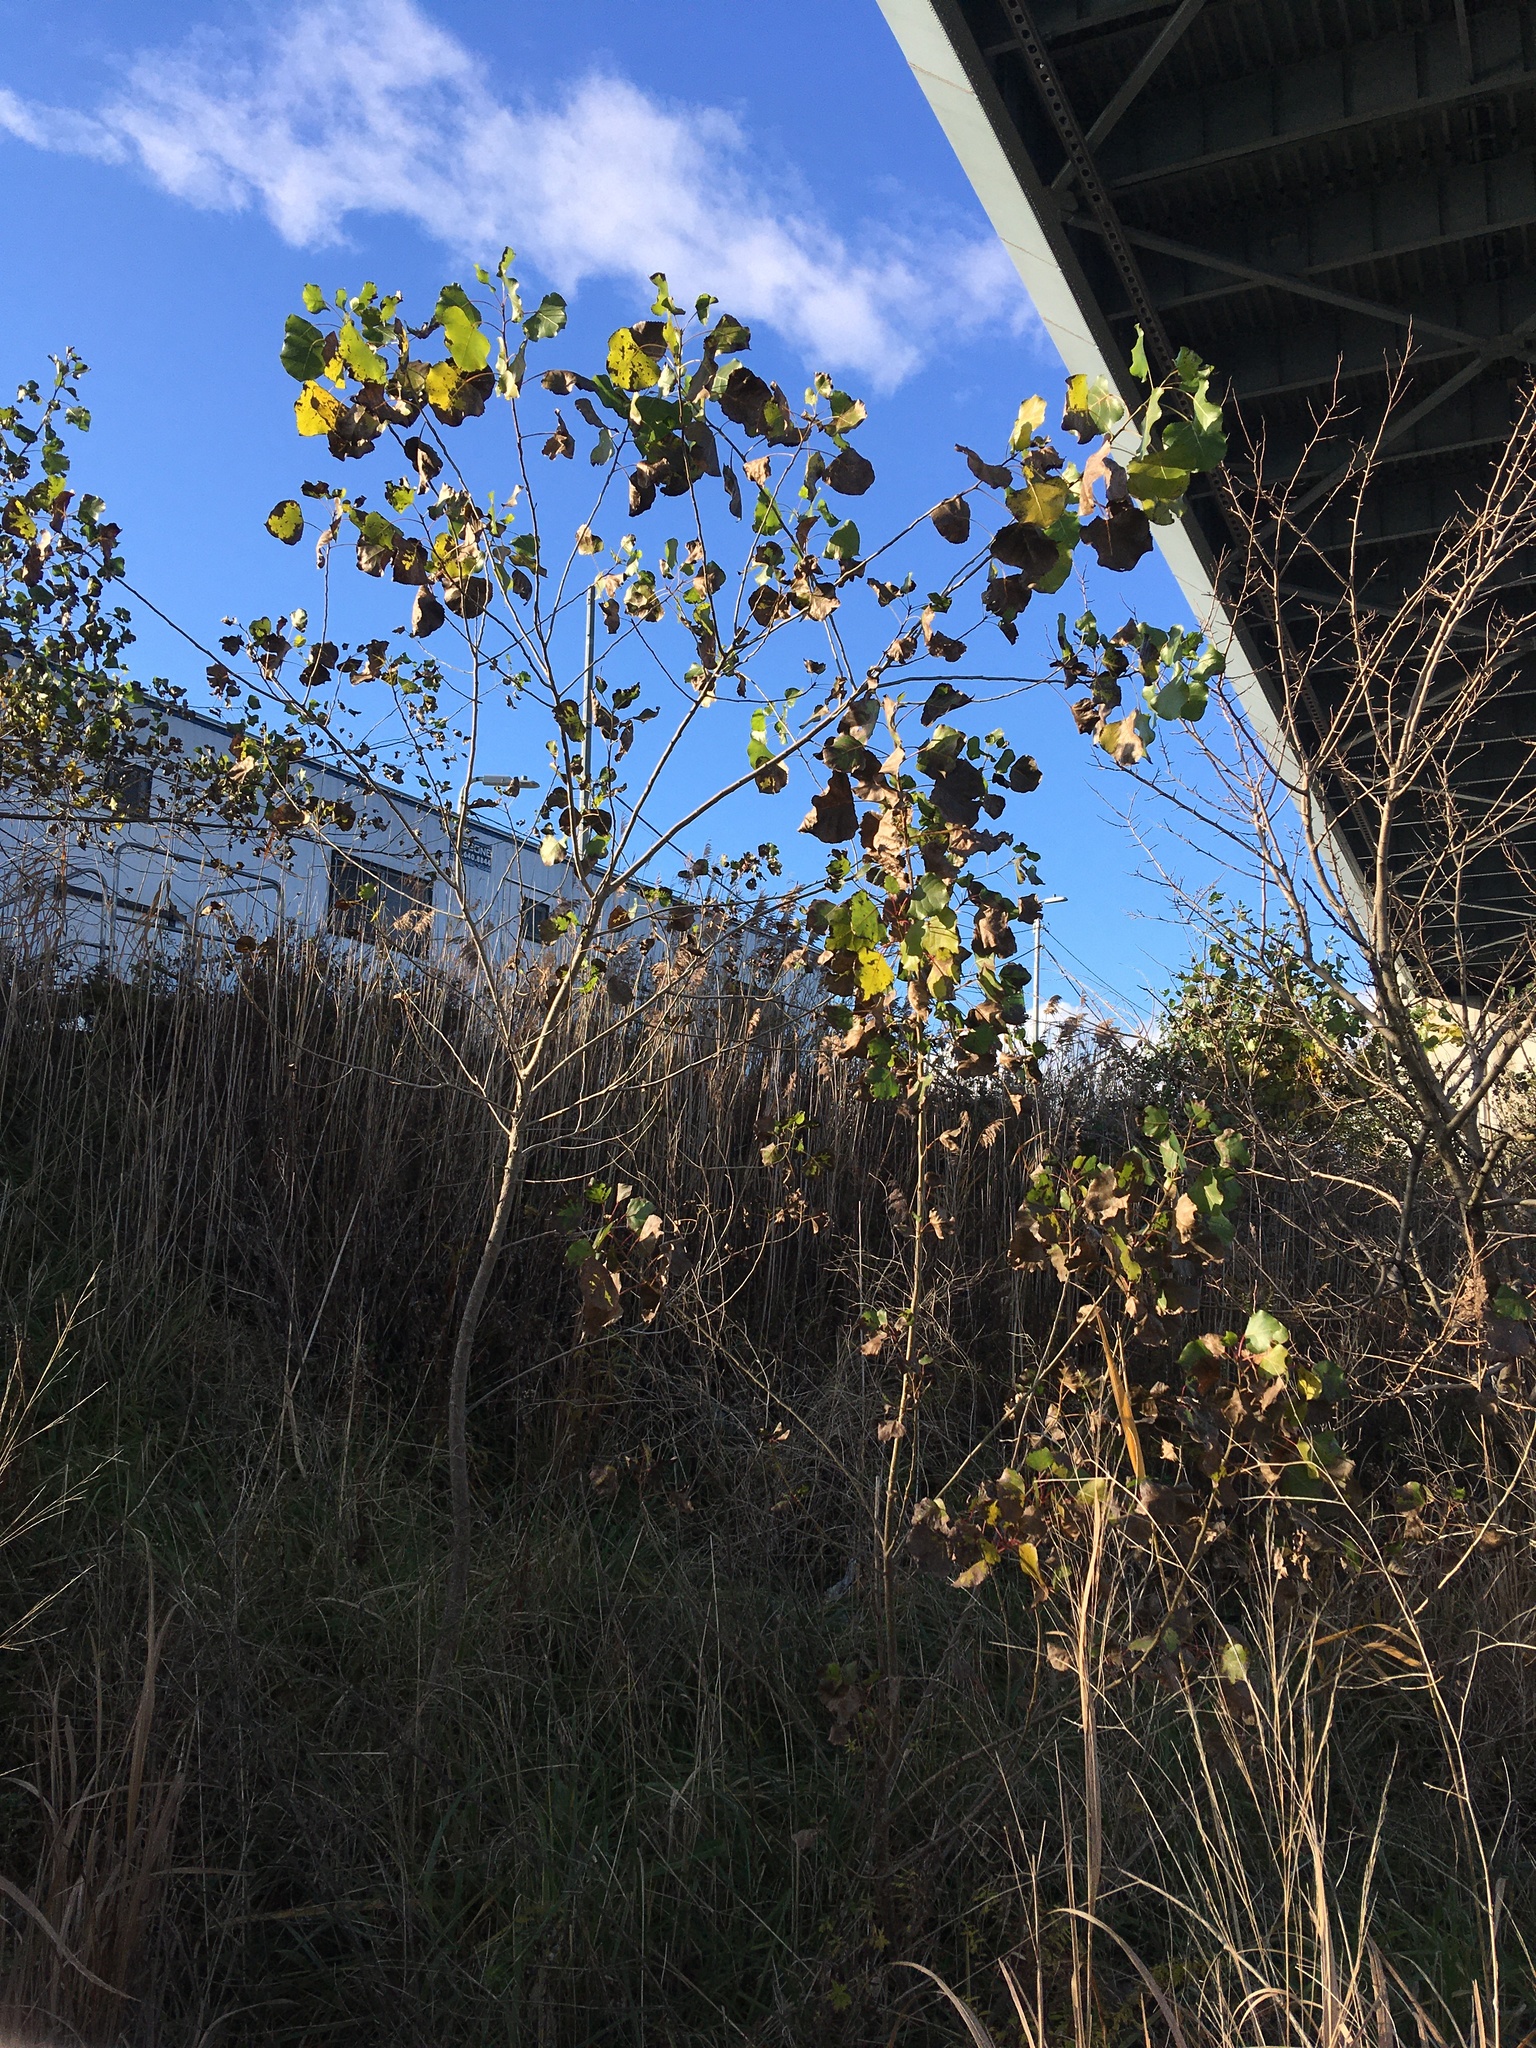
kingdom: Plantae
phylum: Tracheophyta
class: Magnoliopsida
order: Malpighiales
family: Salicaceae
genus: Populus
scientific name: Populus deltoides
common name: Eastern cottonwood
